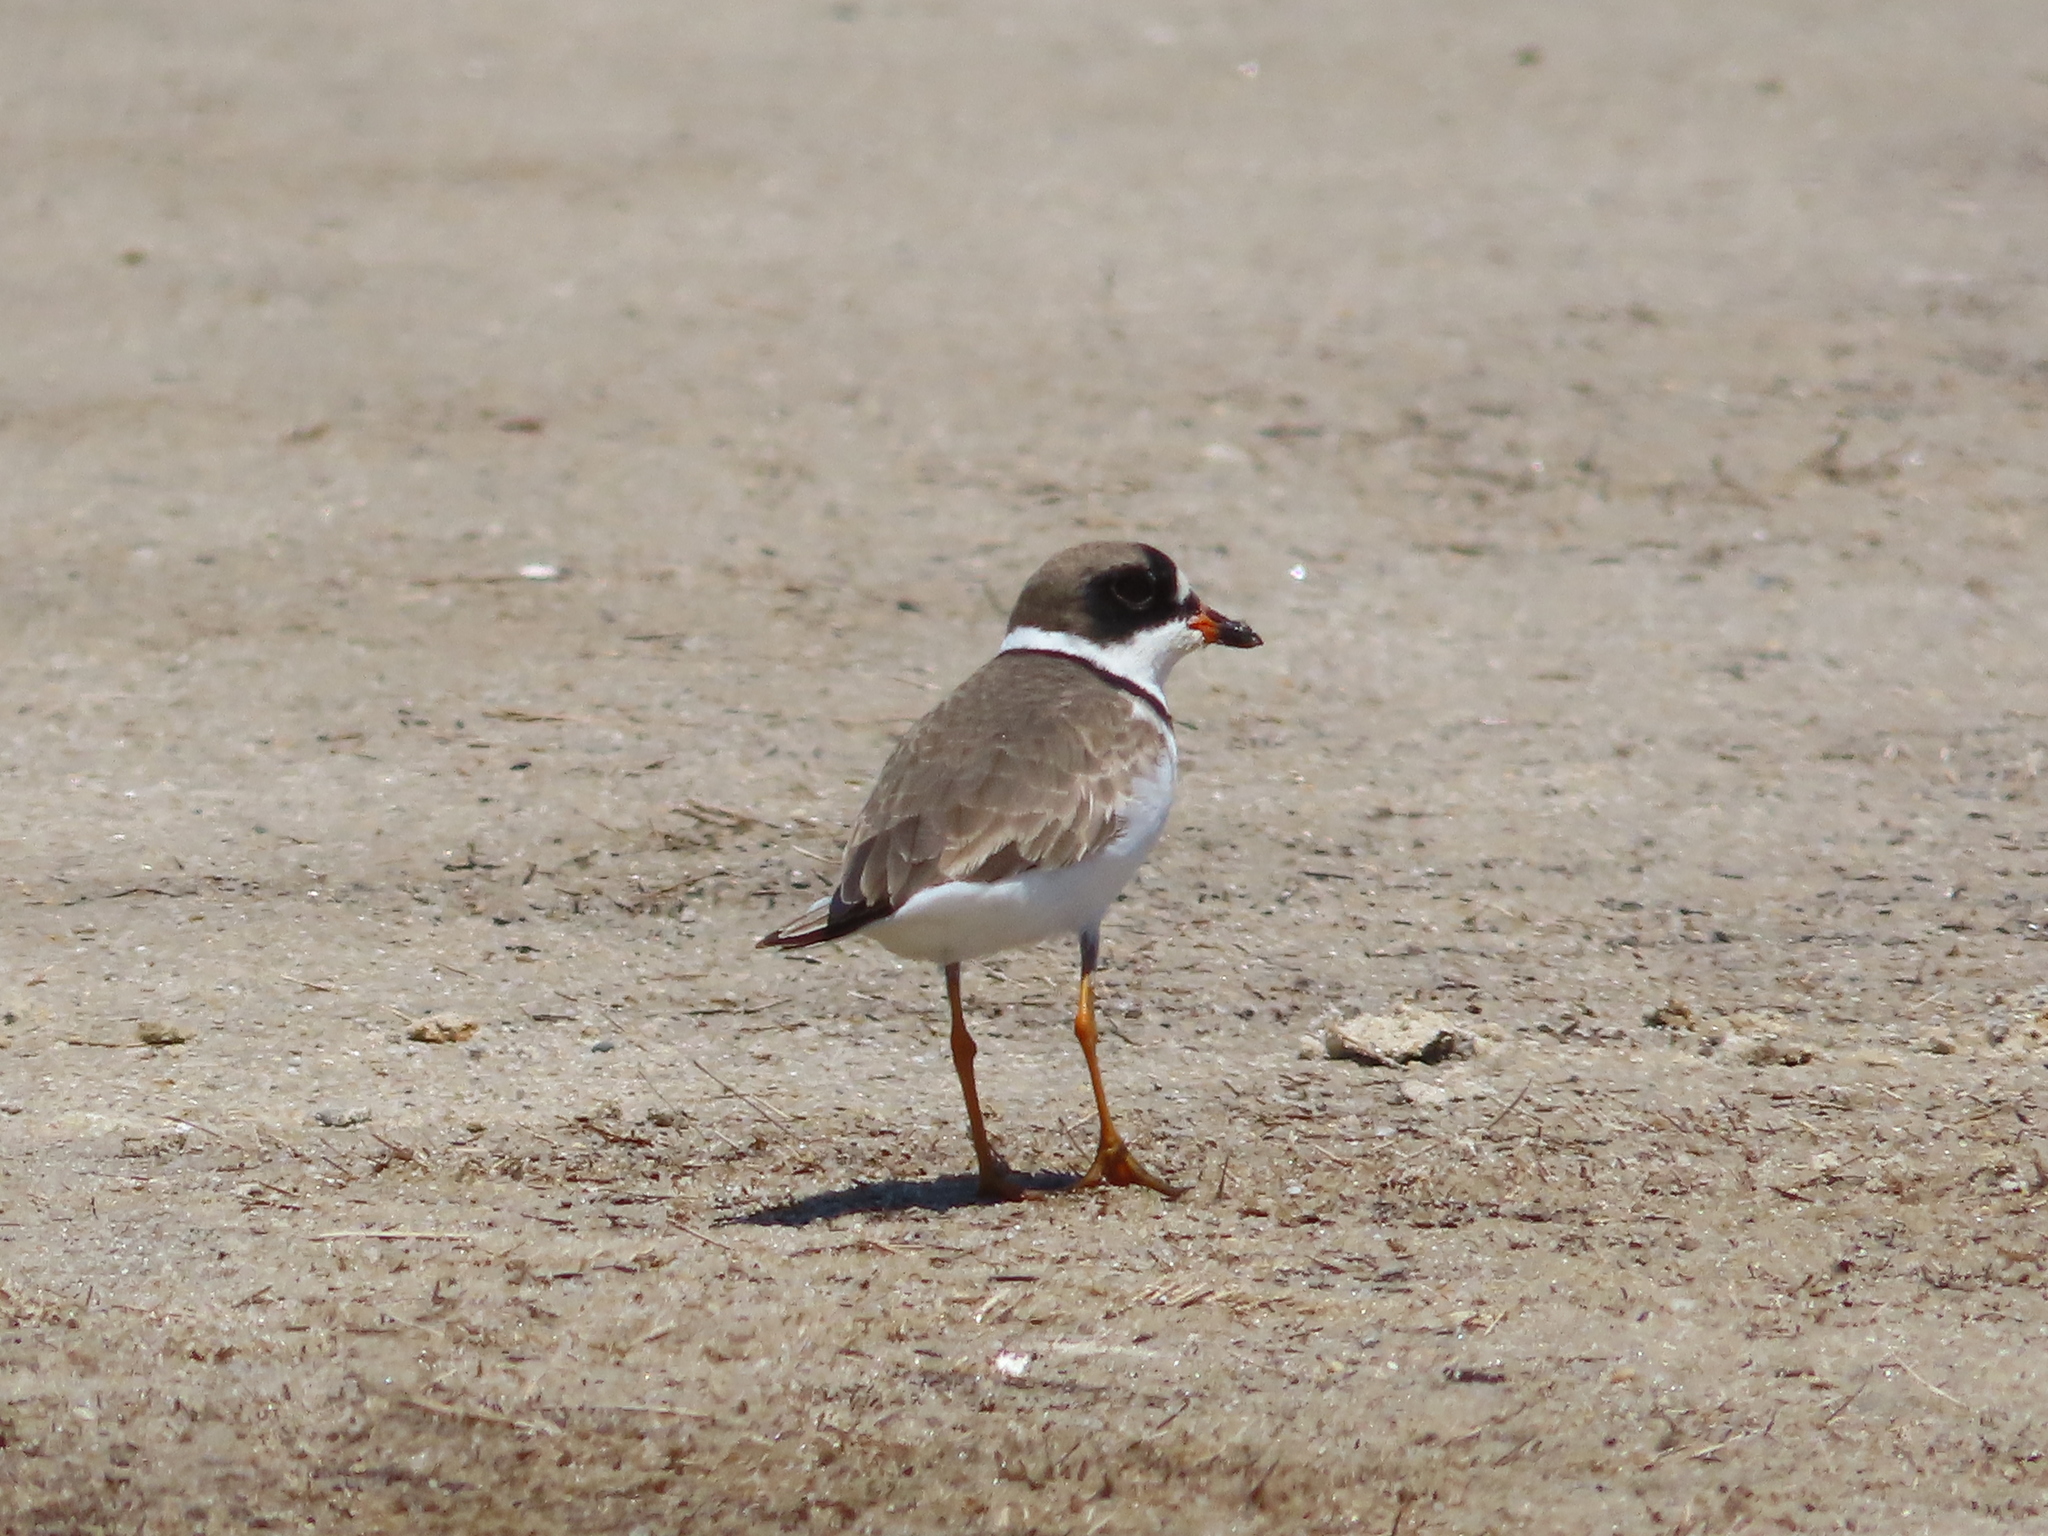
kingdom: Animalia
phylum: Chordata
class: Aves
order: Charadriiformes
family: Charadriidae
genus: Charadrius
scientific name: Charadrius semipalmatus
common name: Semipalmated plover
